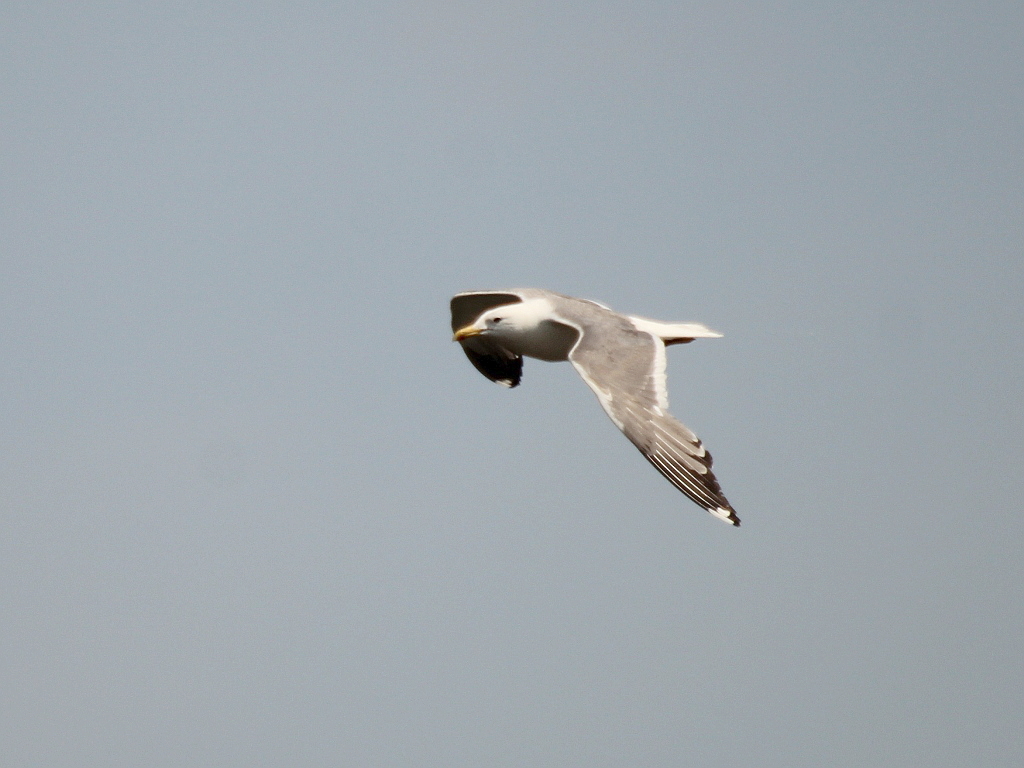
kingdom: Animalia
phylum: Chordata
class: Aves
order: Charadriiformes
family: Laridae
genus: Larus
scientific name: Larus fuscus
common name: Lesser black-backed gull
